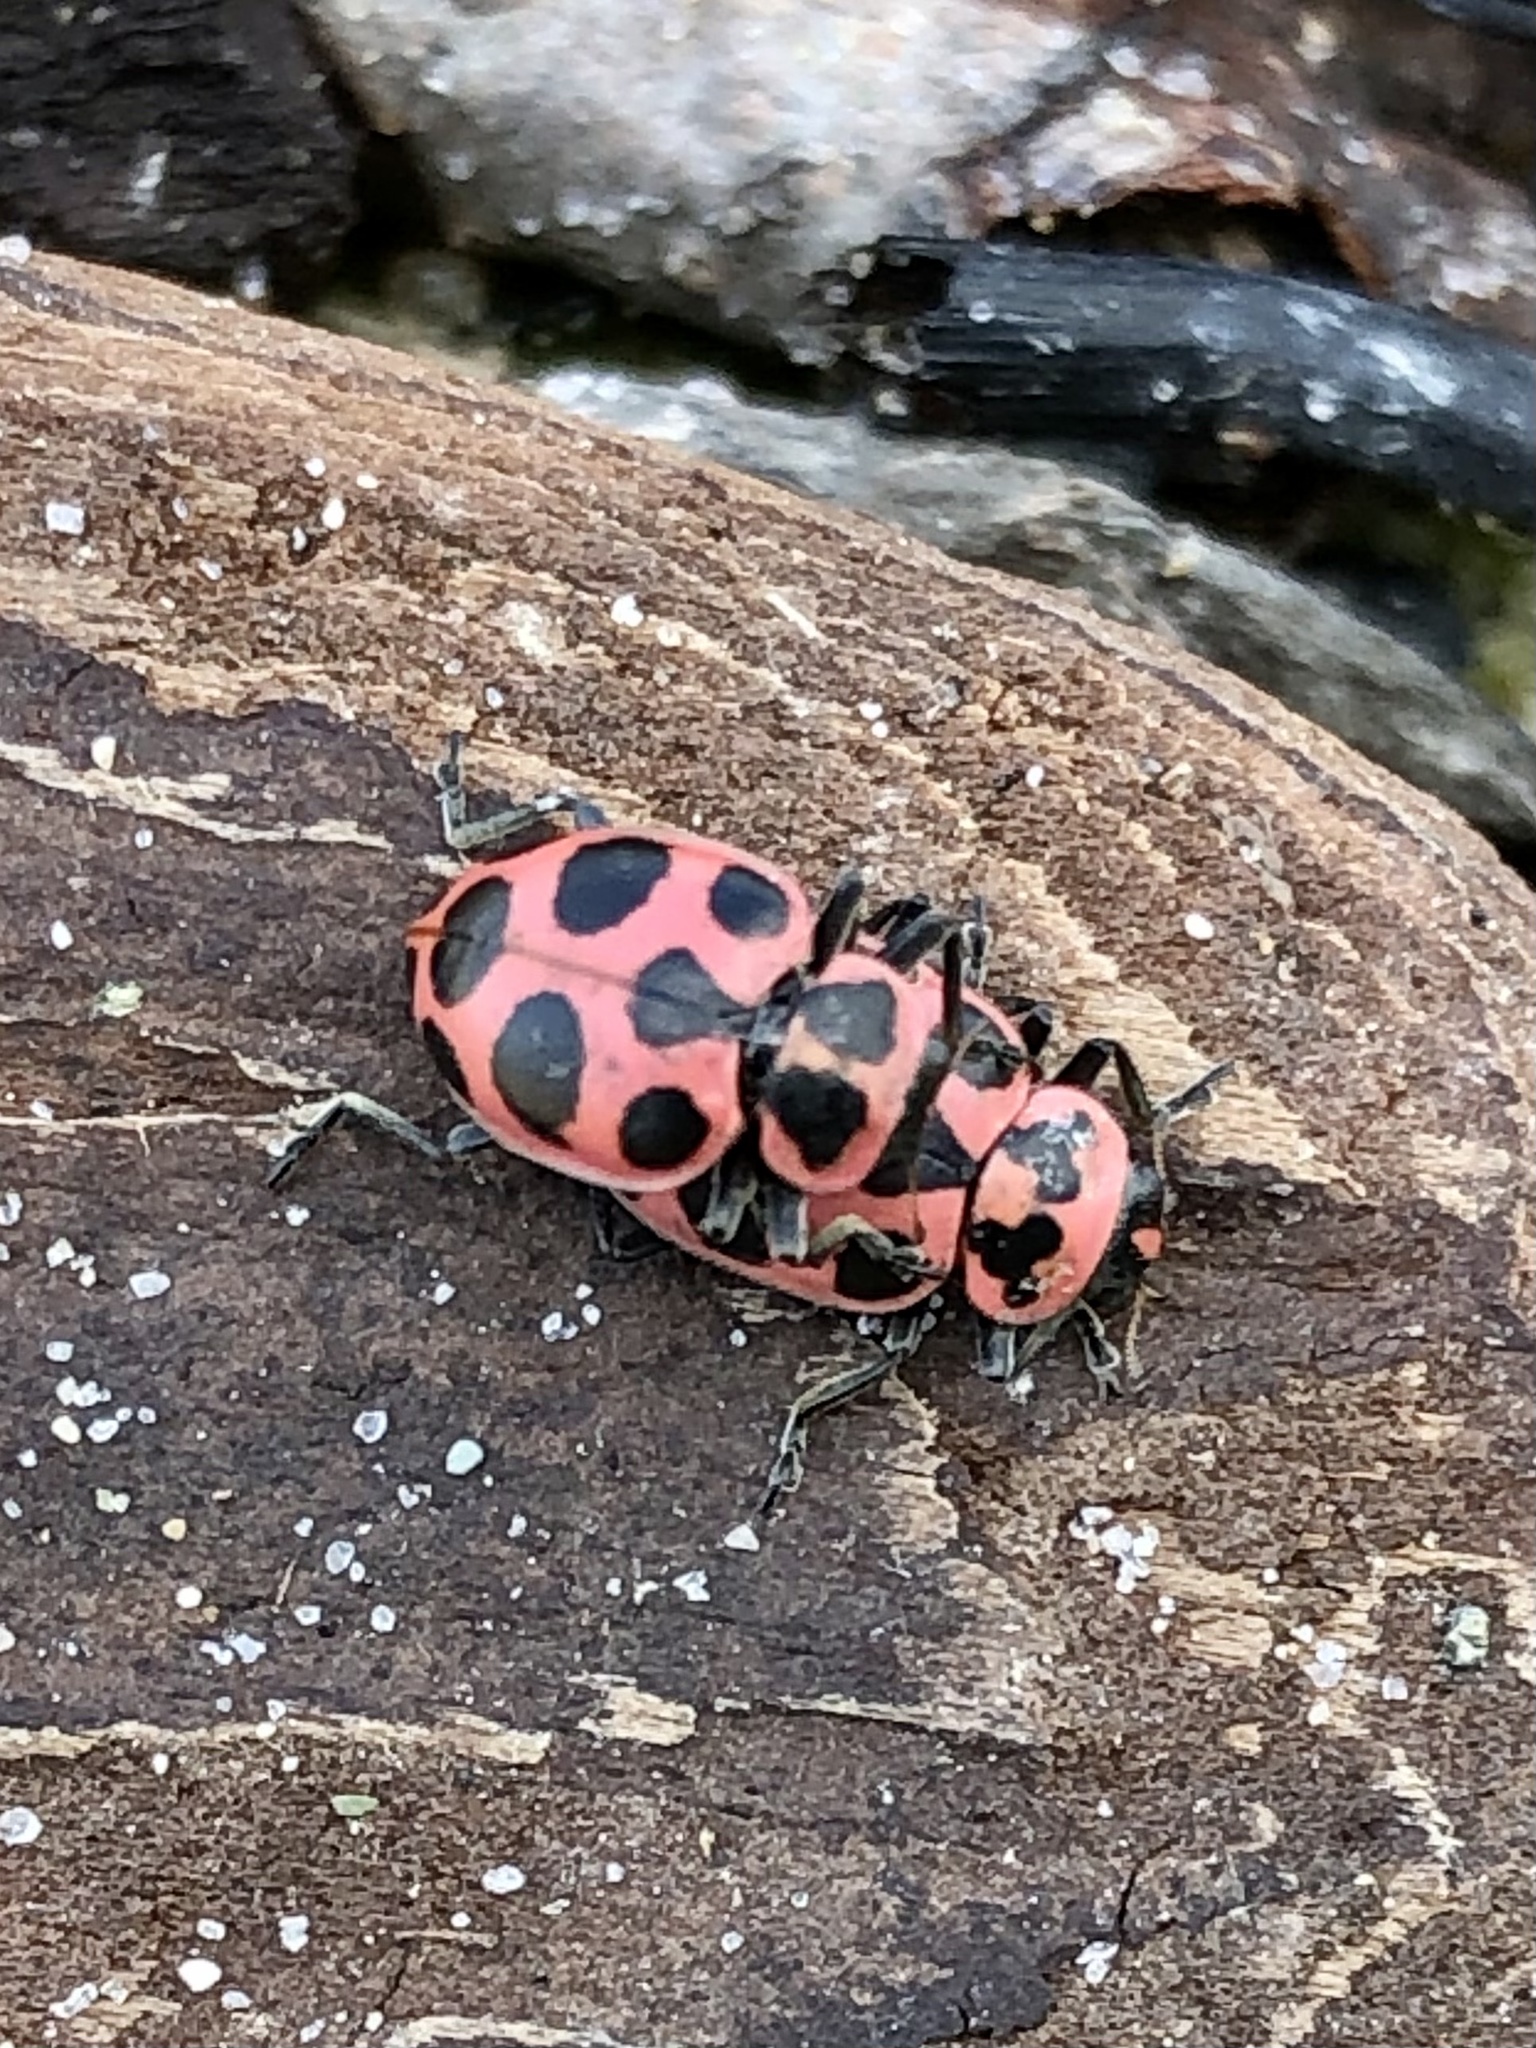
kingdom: Animalia
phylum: Arthropoda
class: Insecta
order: Coleoptera
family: Coccinellidae
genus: Coleomegilla
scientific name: Coleomegilla maculata
